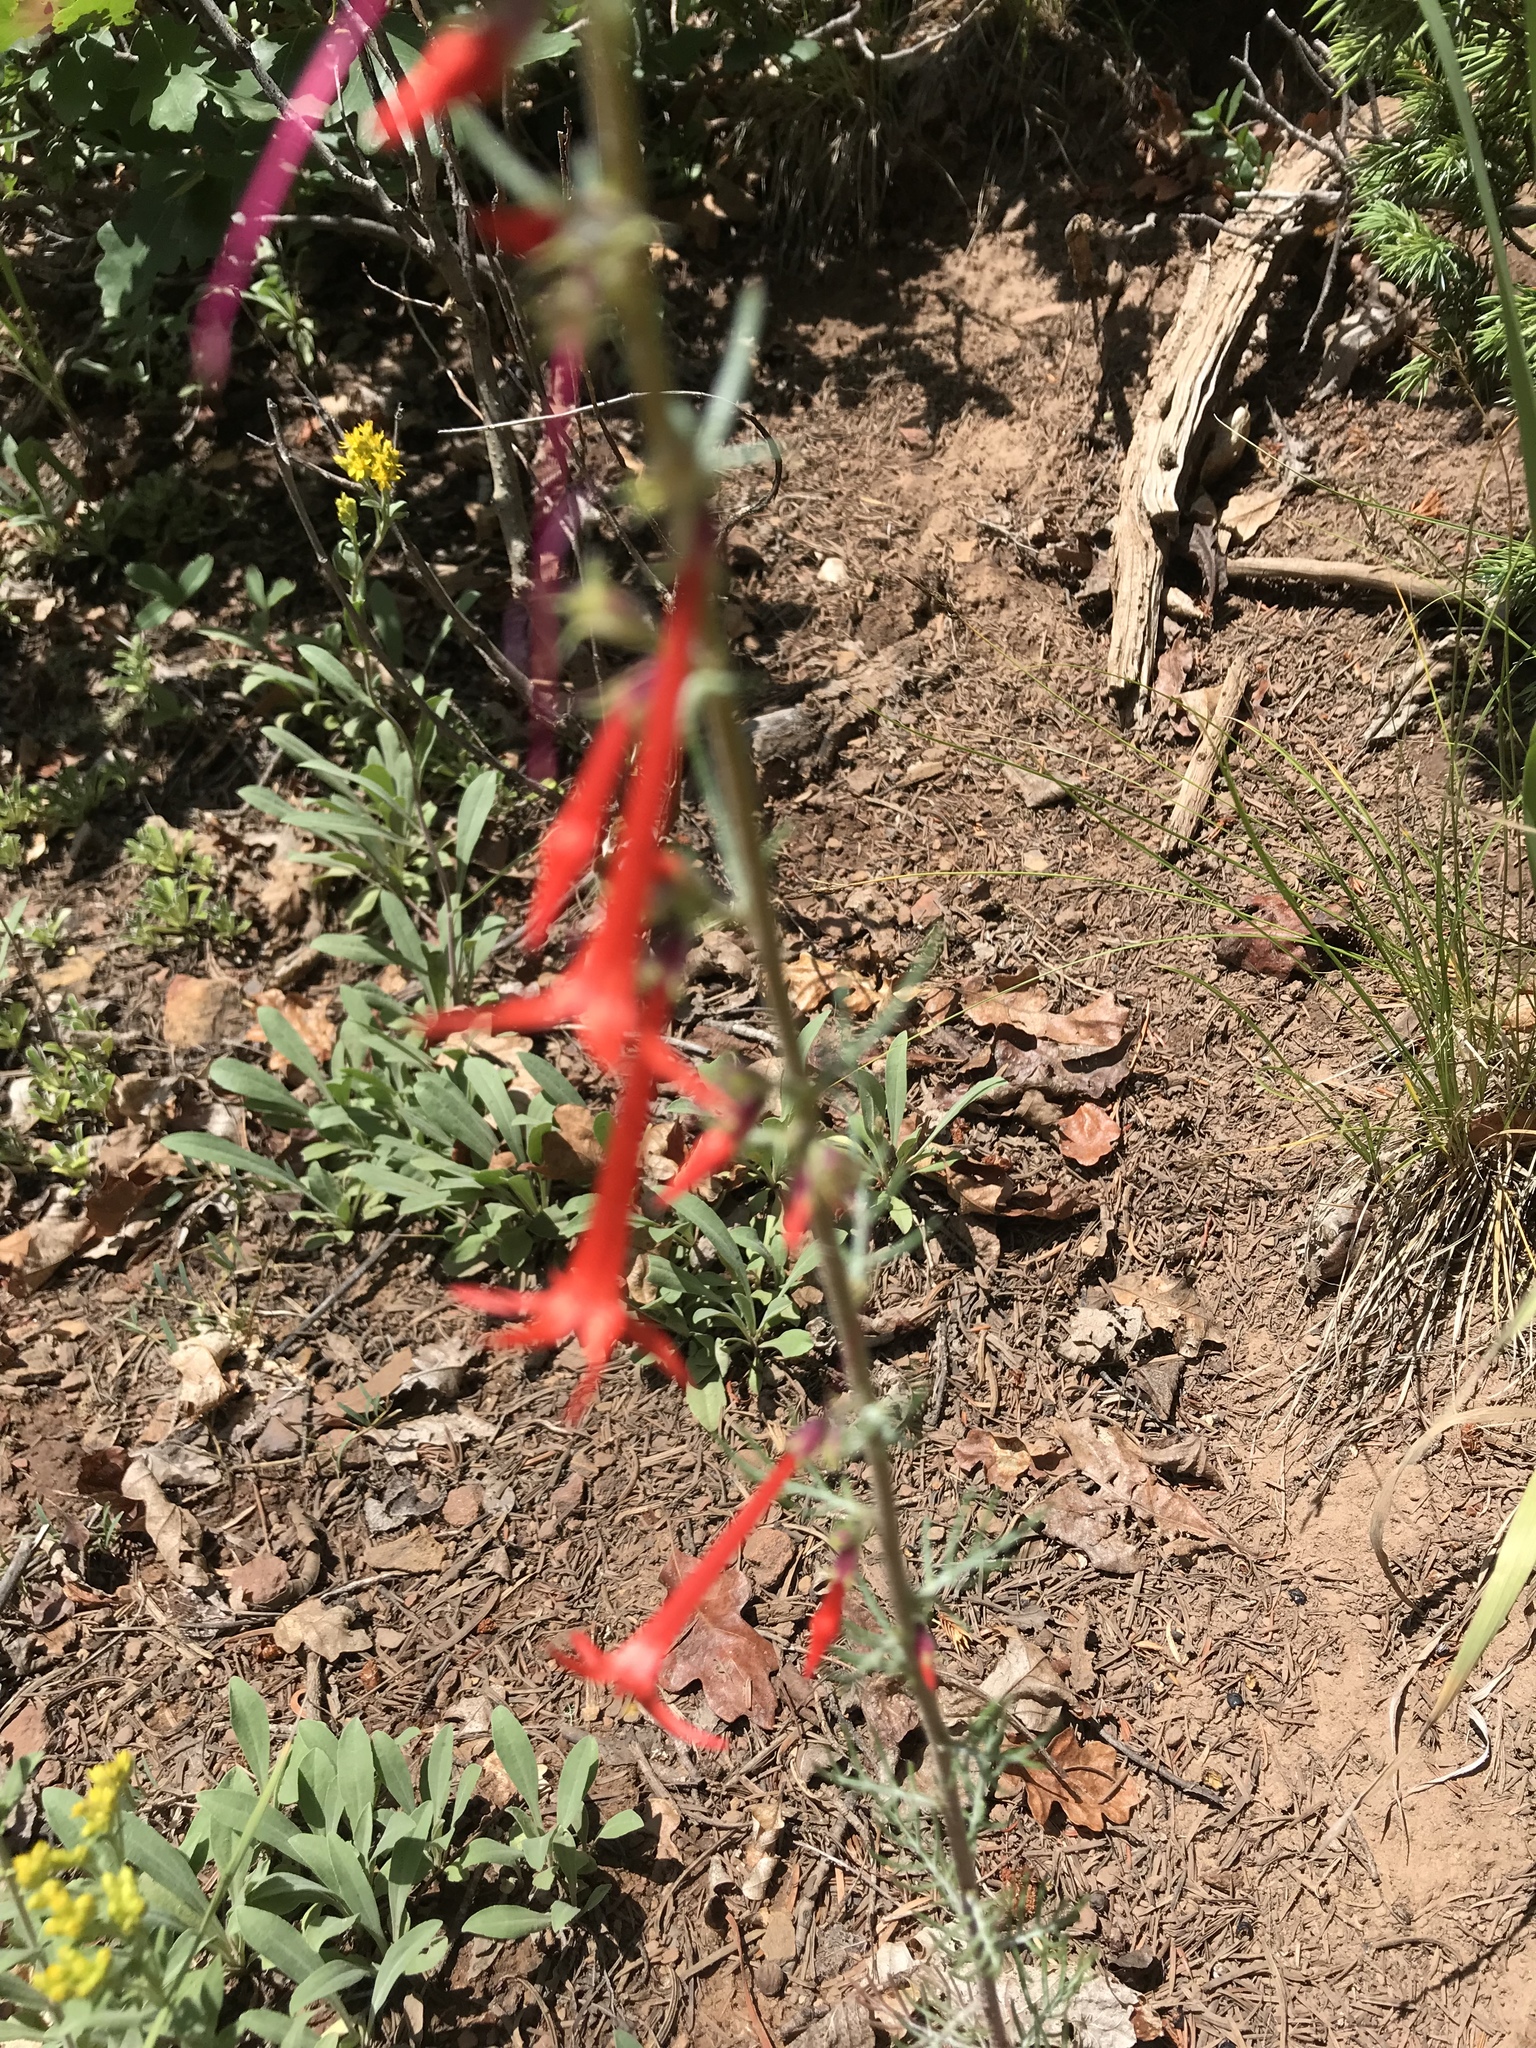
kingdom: Plantae
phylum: Tracheophyta
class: Magnoliopsida
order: Ericales
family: Polemoniaceae
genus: Ipomopsis
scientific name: Ipomopsis aggregata
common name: Scarlet gilia
